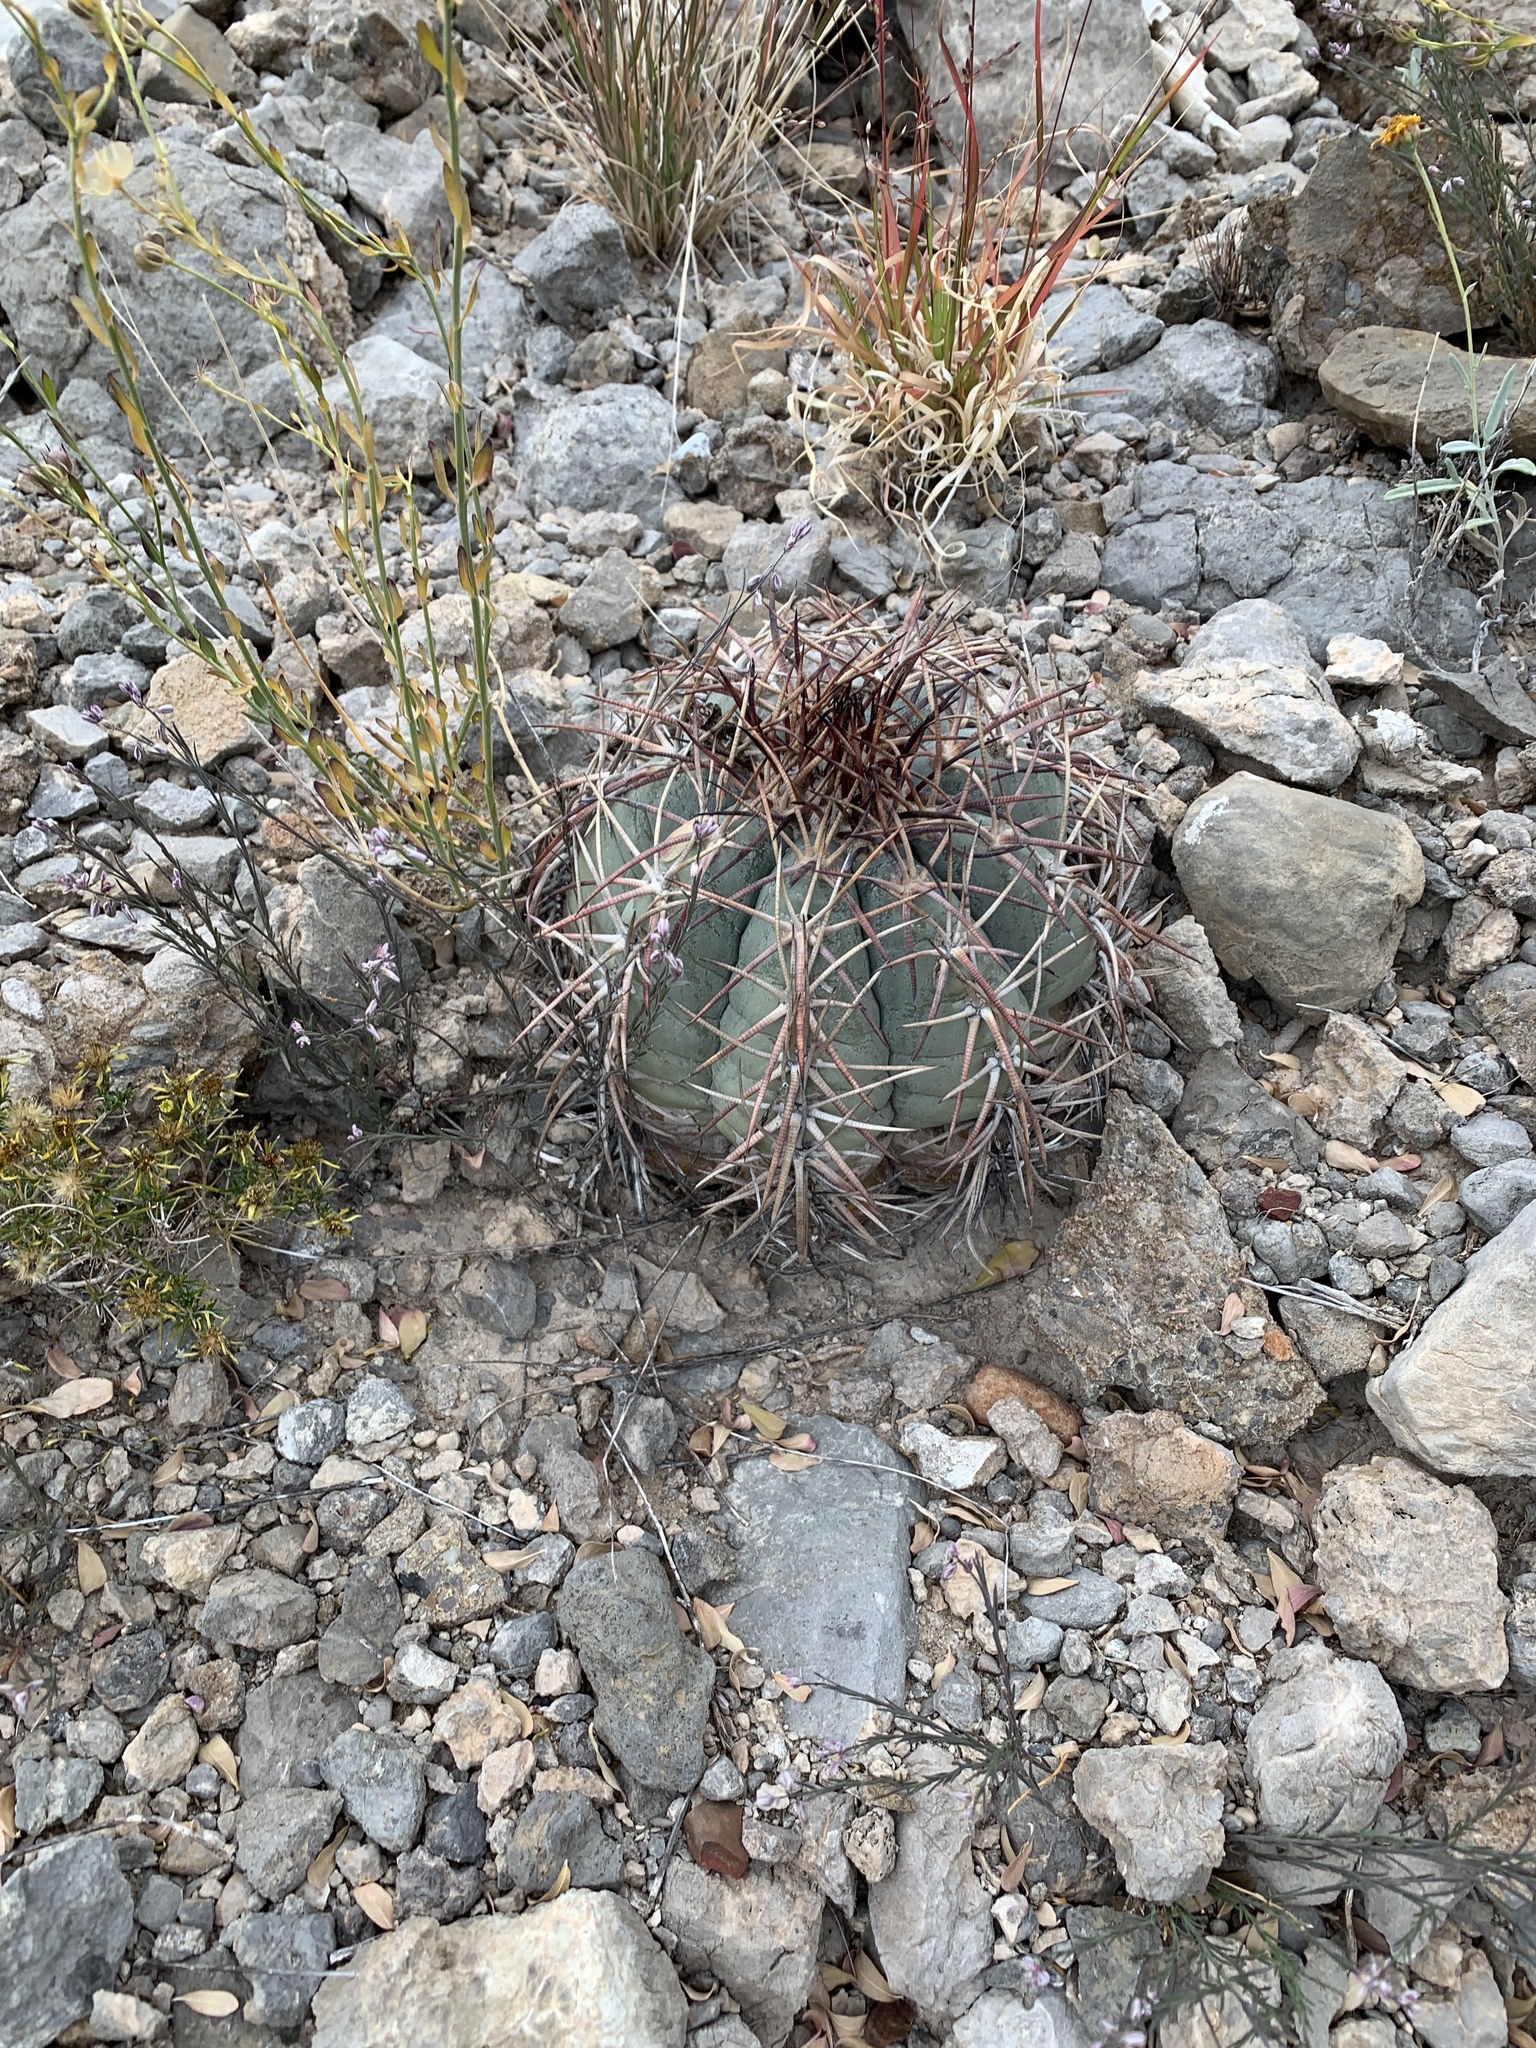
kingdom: Plantae
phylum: Tracheophyta
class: Magnoliopsida
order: Caryophyllales
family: Cactaceae
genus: Echinocactus
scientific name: Echinocactus horizonthalonius
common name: Devilshead
